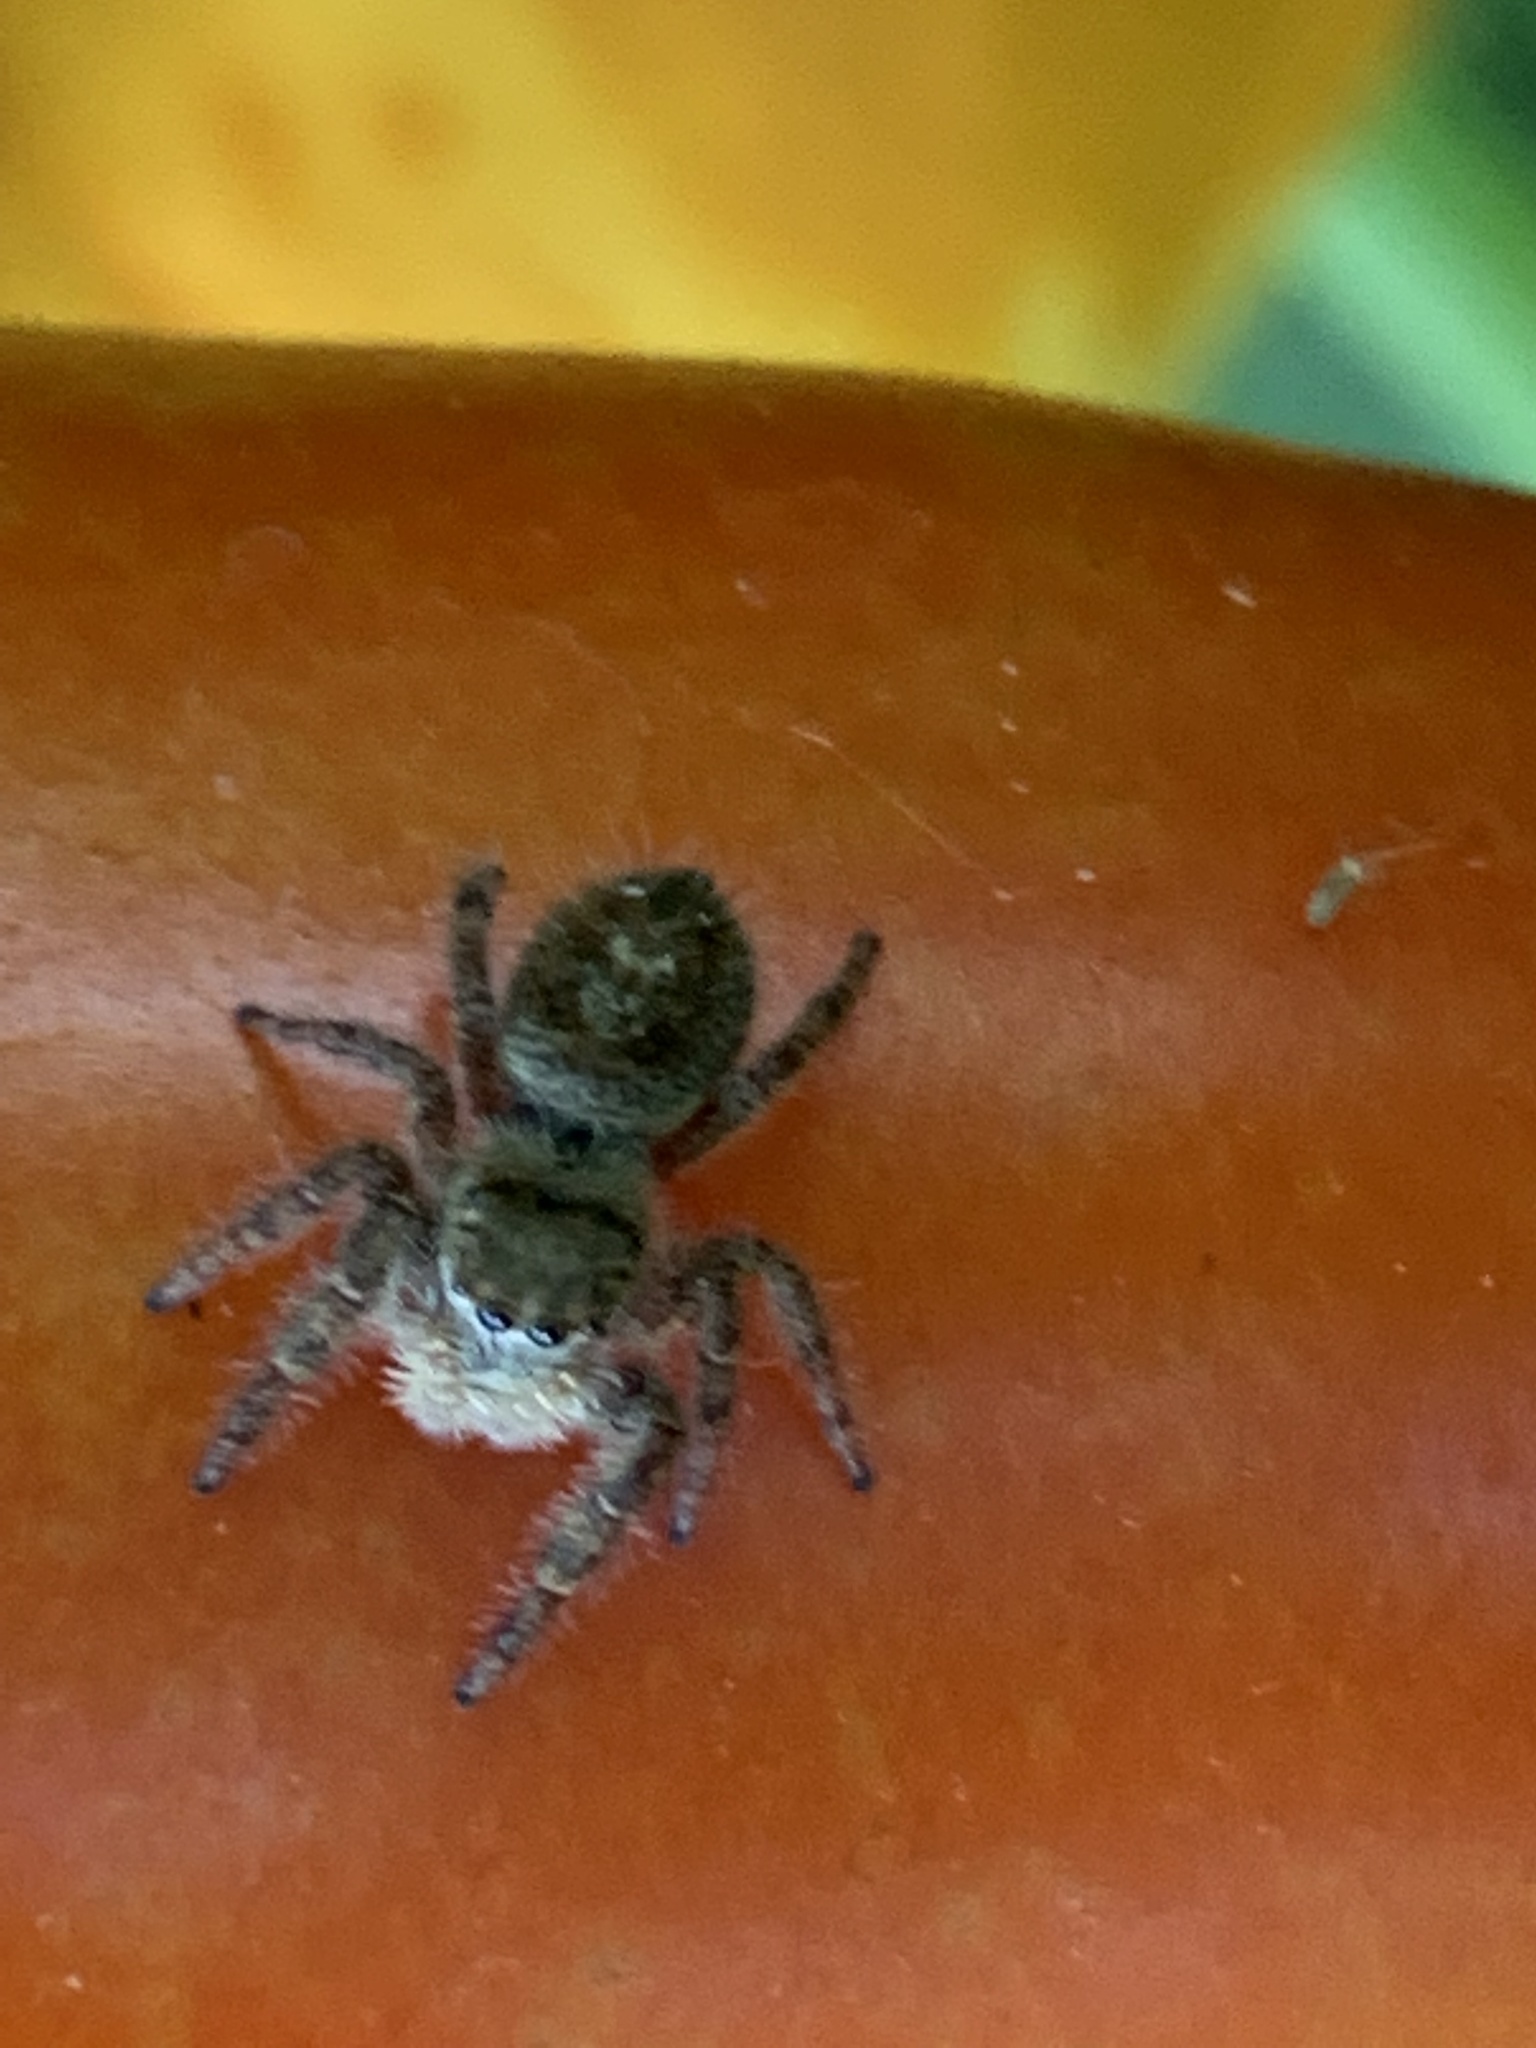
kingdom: Animalia
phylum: Arthropoda
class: Arachnida
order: Araneae
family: Salticidae
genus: Phidippus
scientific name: Phidippus princeps
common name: Grayish jumping spider
